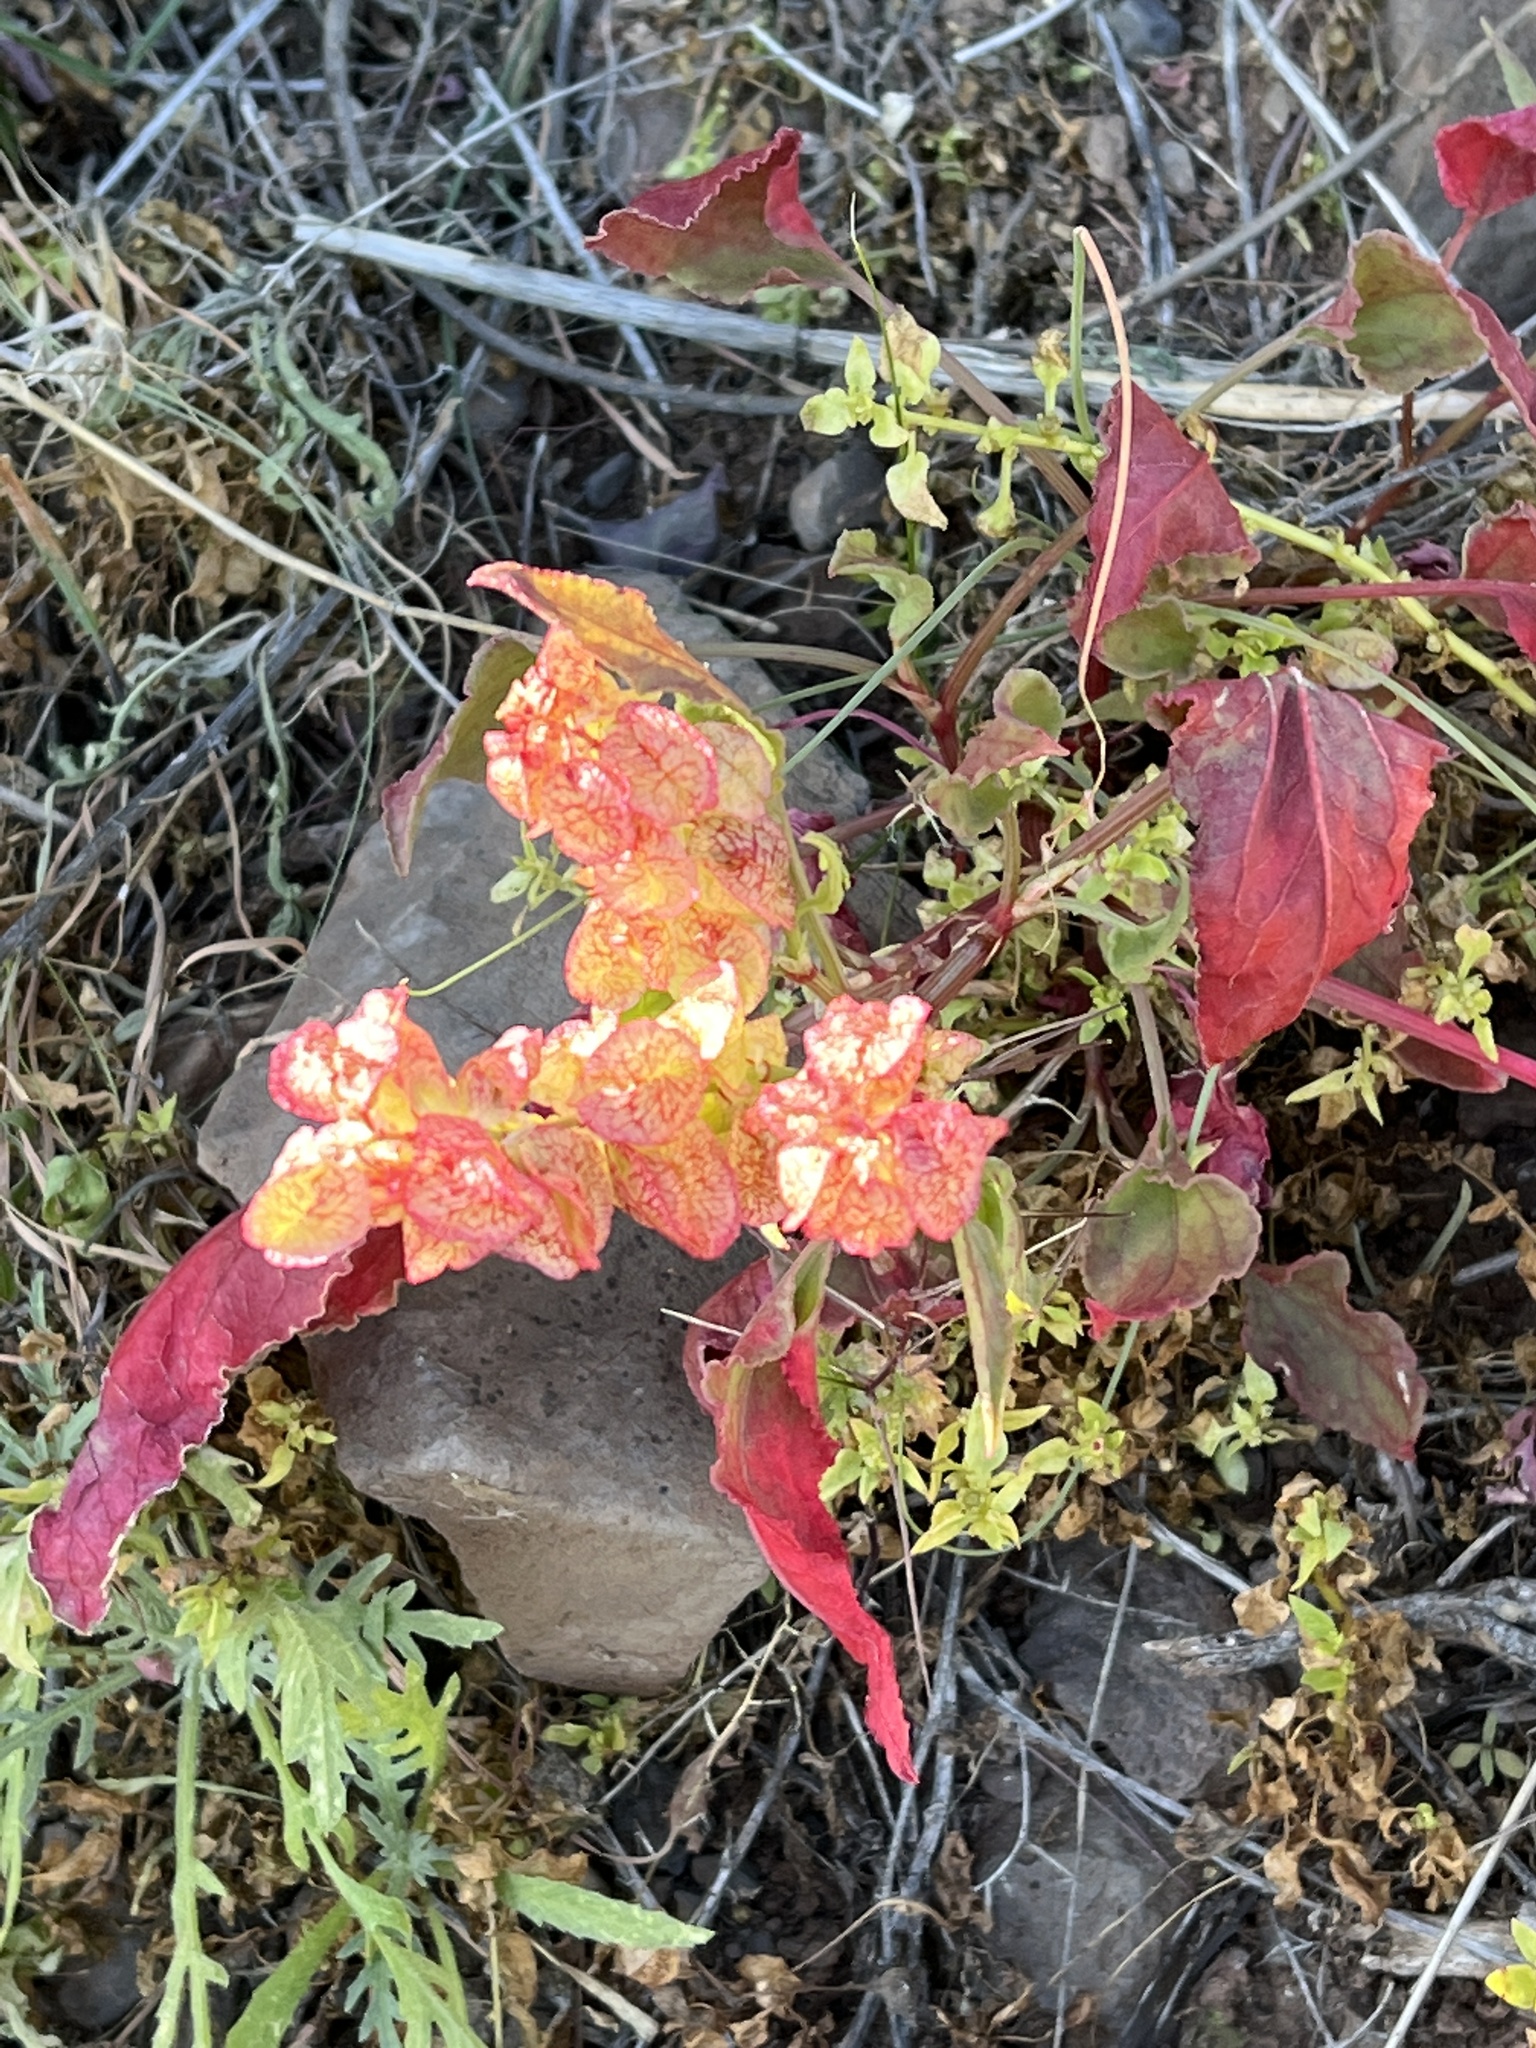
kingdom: Plantae
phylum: Tracheophyta
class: Magnoliopsida
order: Caryophyllales
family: Polygonaceae
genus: Rumex
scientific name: Rumex vesicarius
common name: Bladder dock
